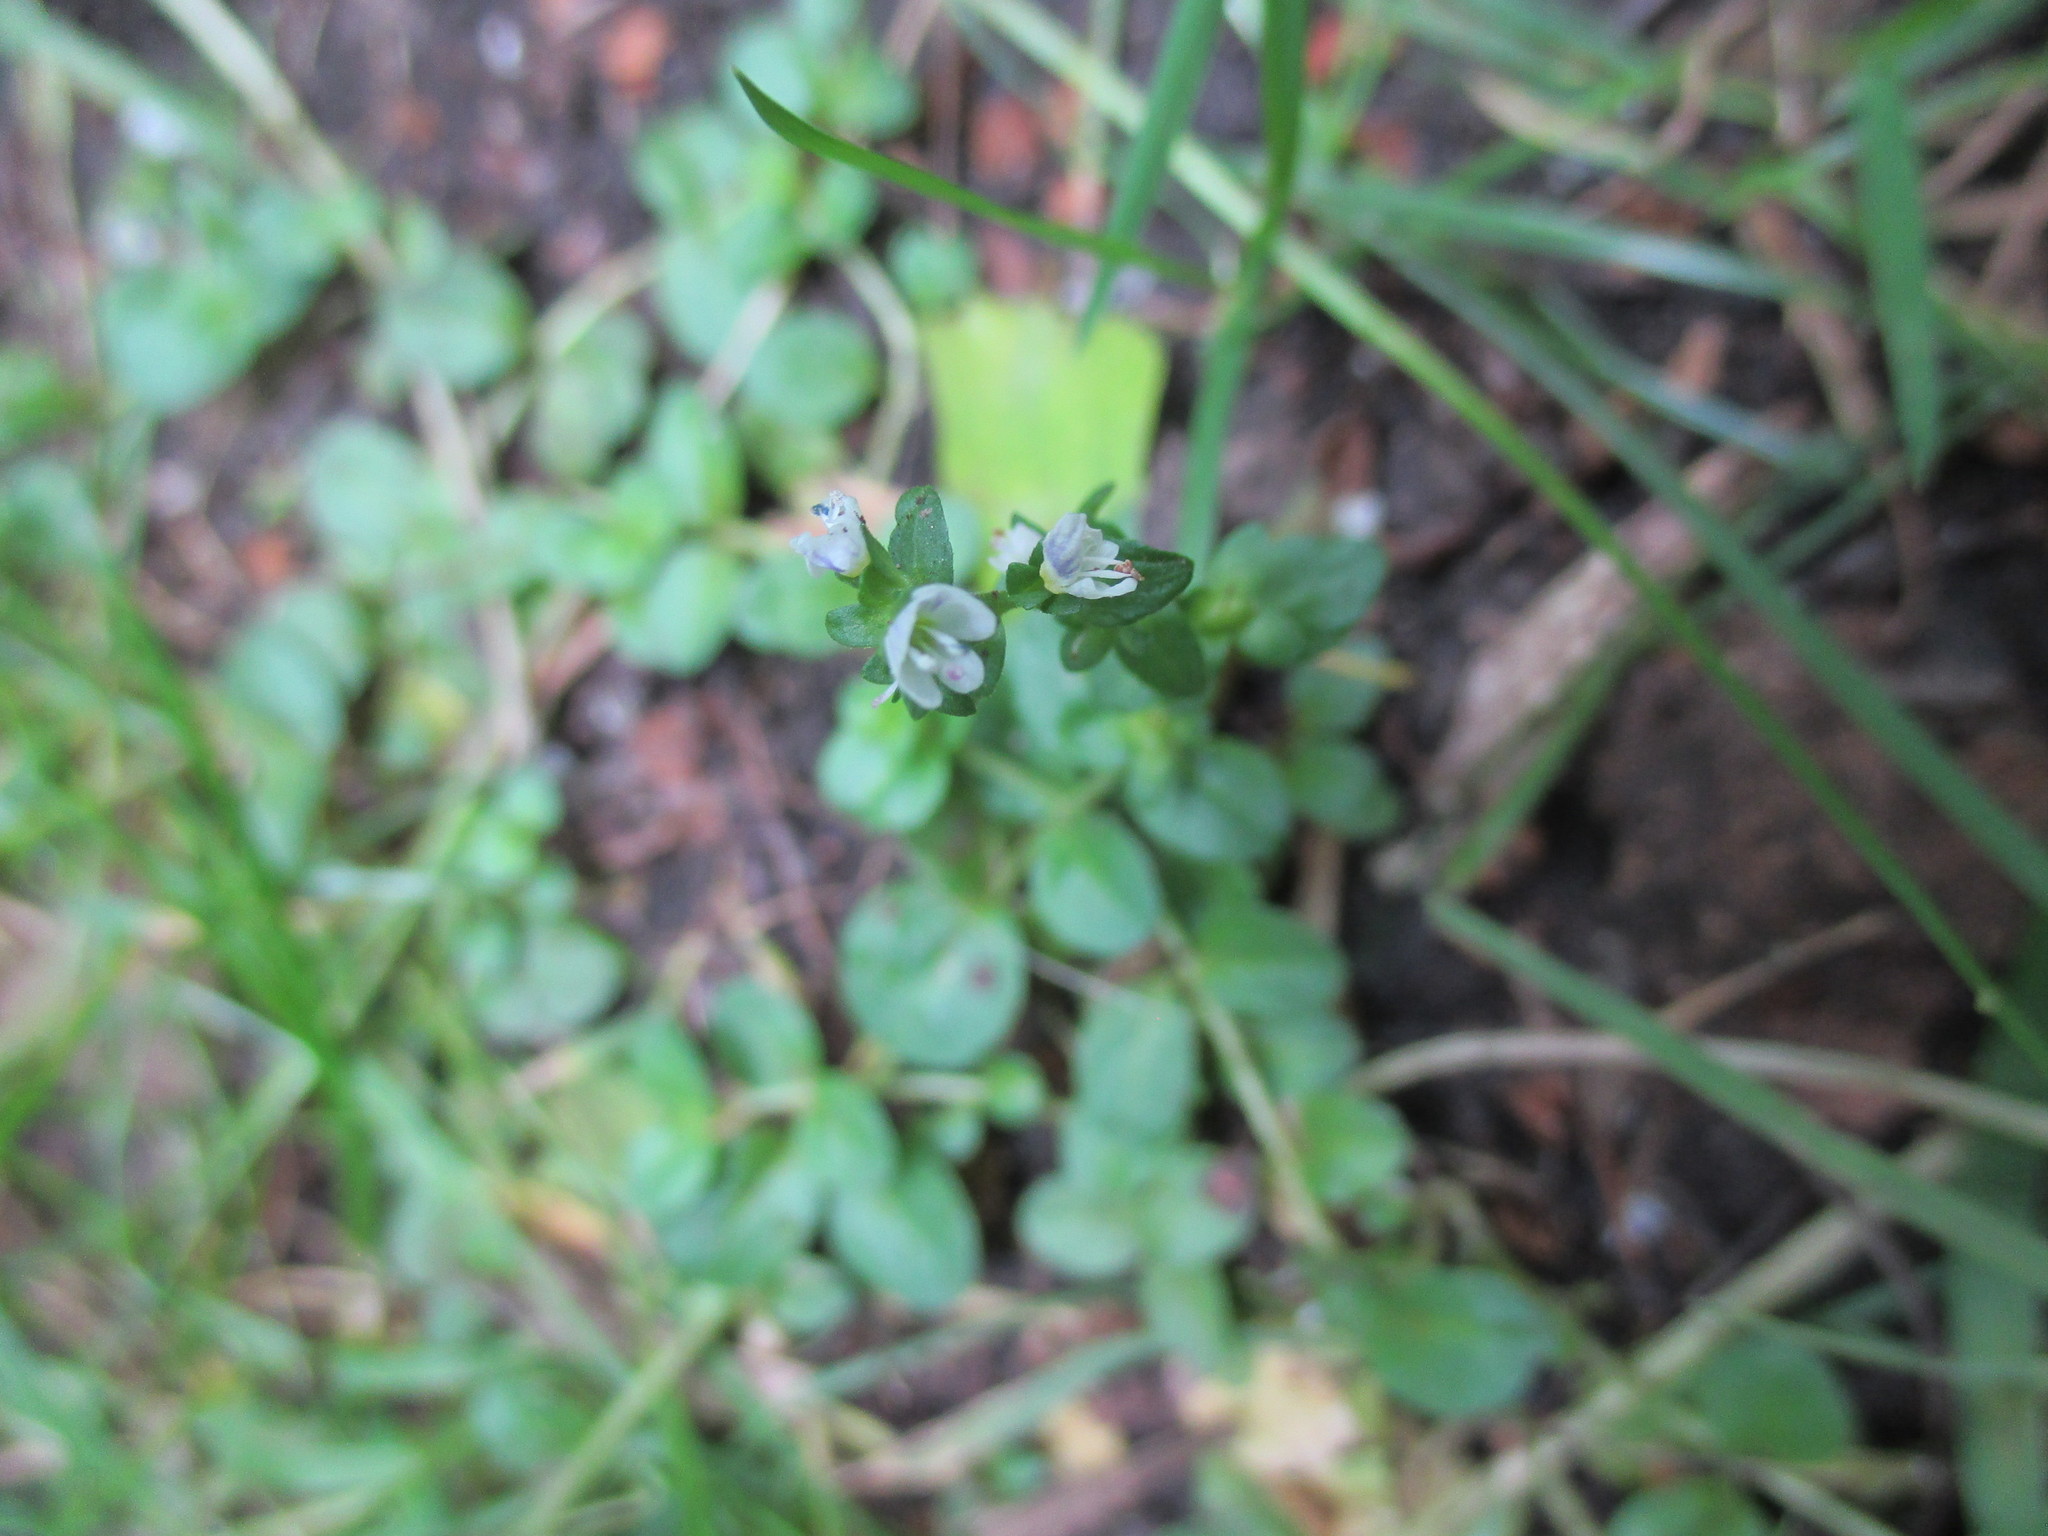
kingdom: Plantae
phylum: Tracheophyta
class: Magnoliopsida
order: Lamiales
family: Plantaginaceae
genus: Veronica
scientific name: Veronica serpyllifolia
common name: Thyme-leaved speedwell
